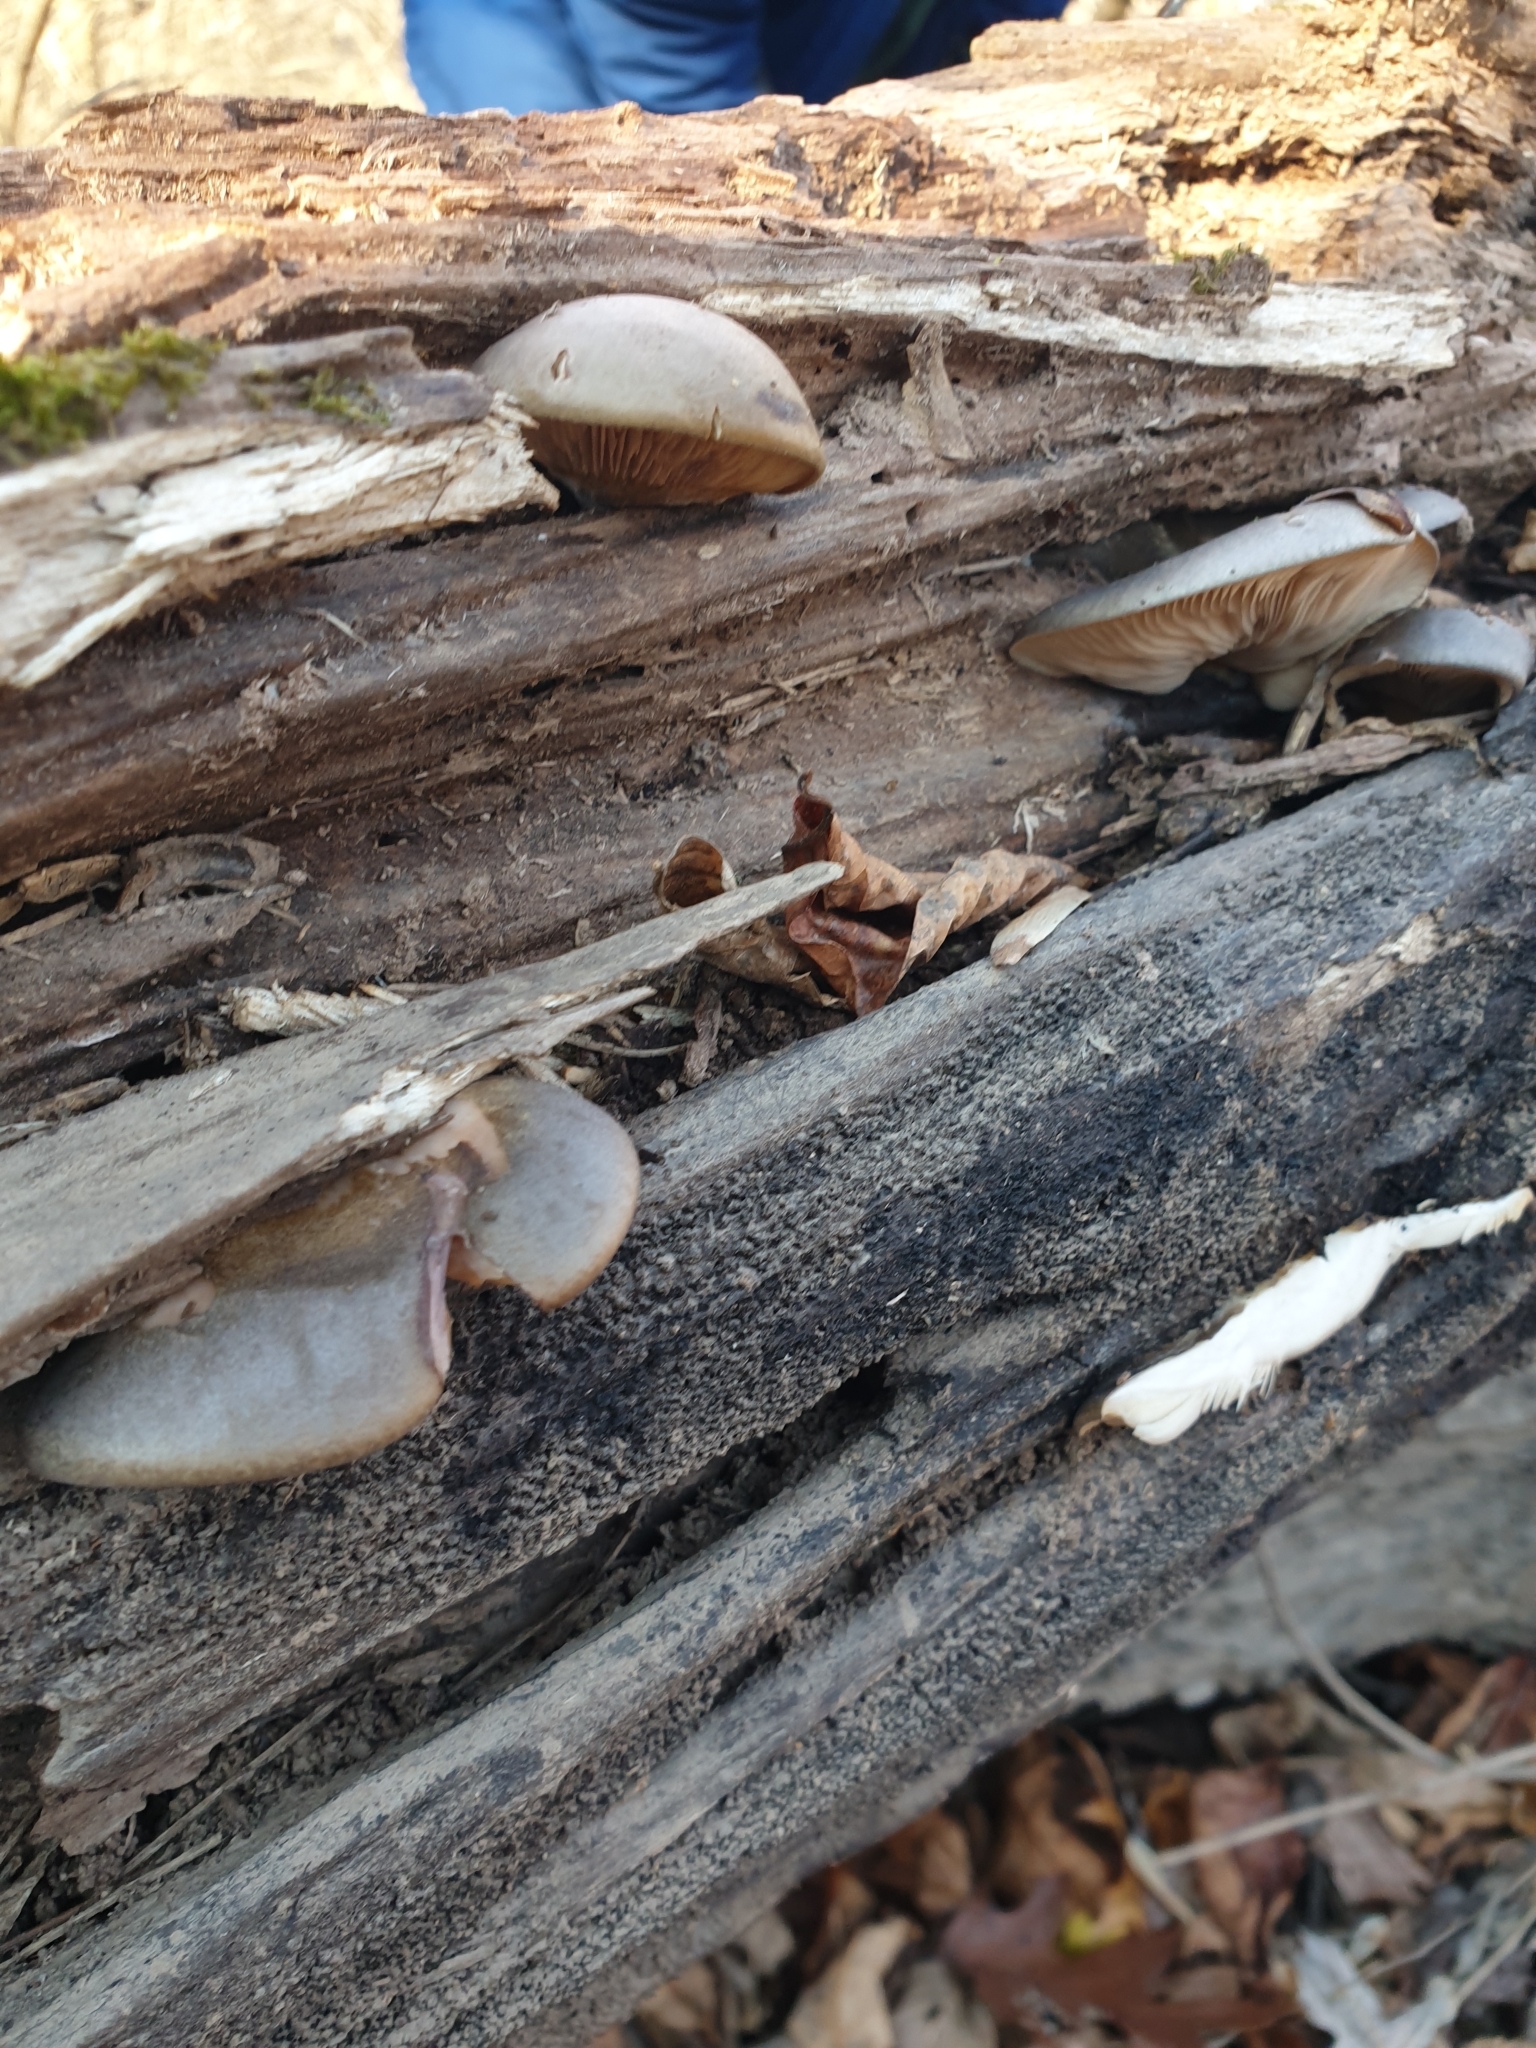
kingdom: Fungi
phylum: Basidiomycota
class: Agaricomycetes
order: Agaricales
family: Sarcomyxaceae
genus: Sarcomyxa
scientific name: Sarcomyxa serotina
